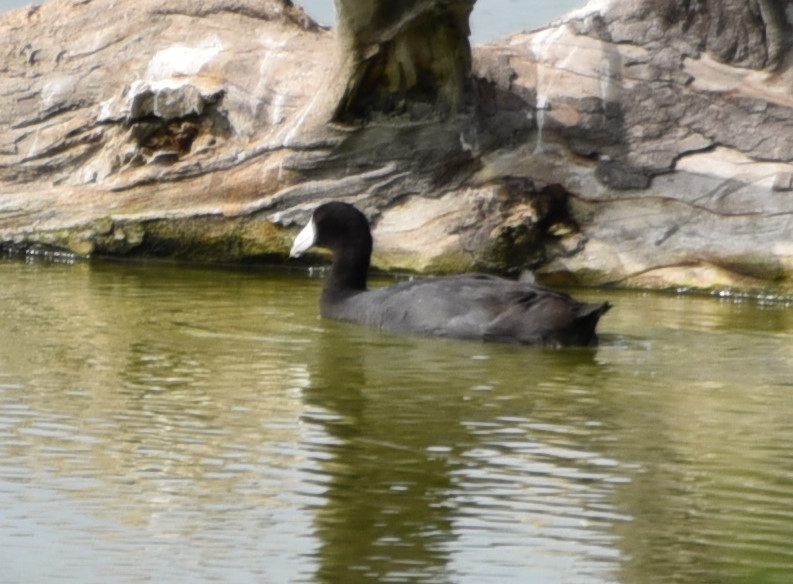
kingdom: Animalia
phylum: Chordata
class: Aves
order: Gruiformes
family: Rallidae
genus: Fulica
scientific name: Fulica americana
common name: American coot
